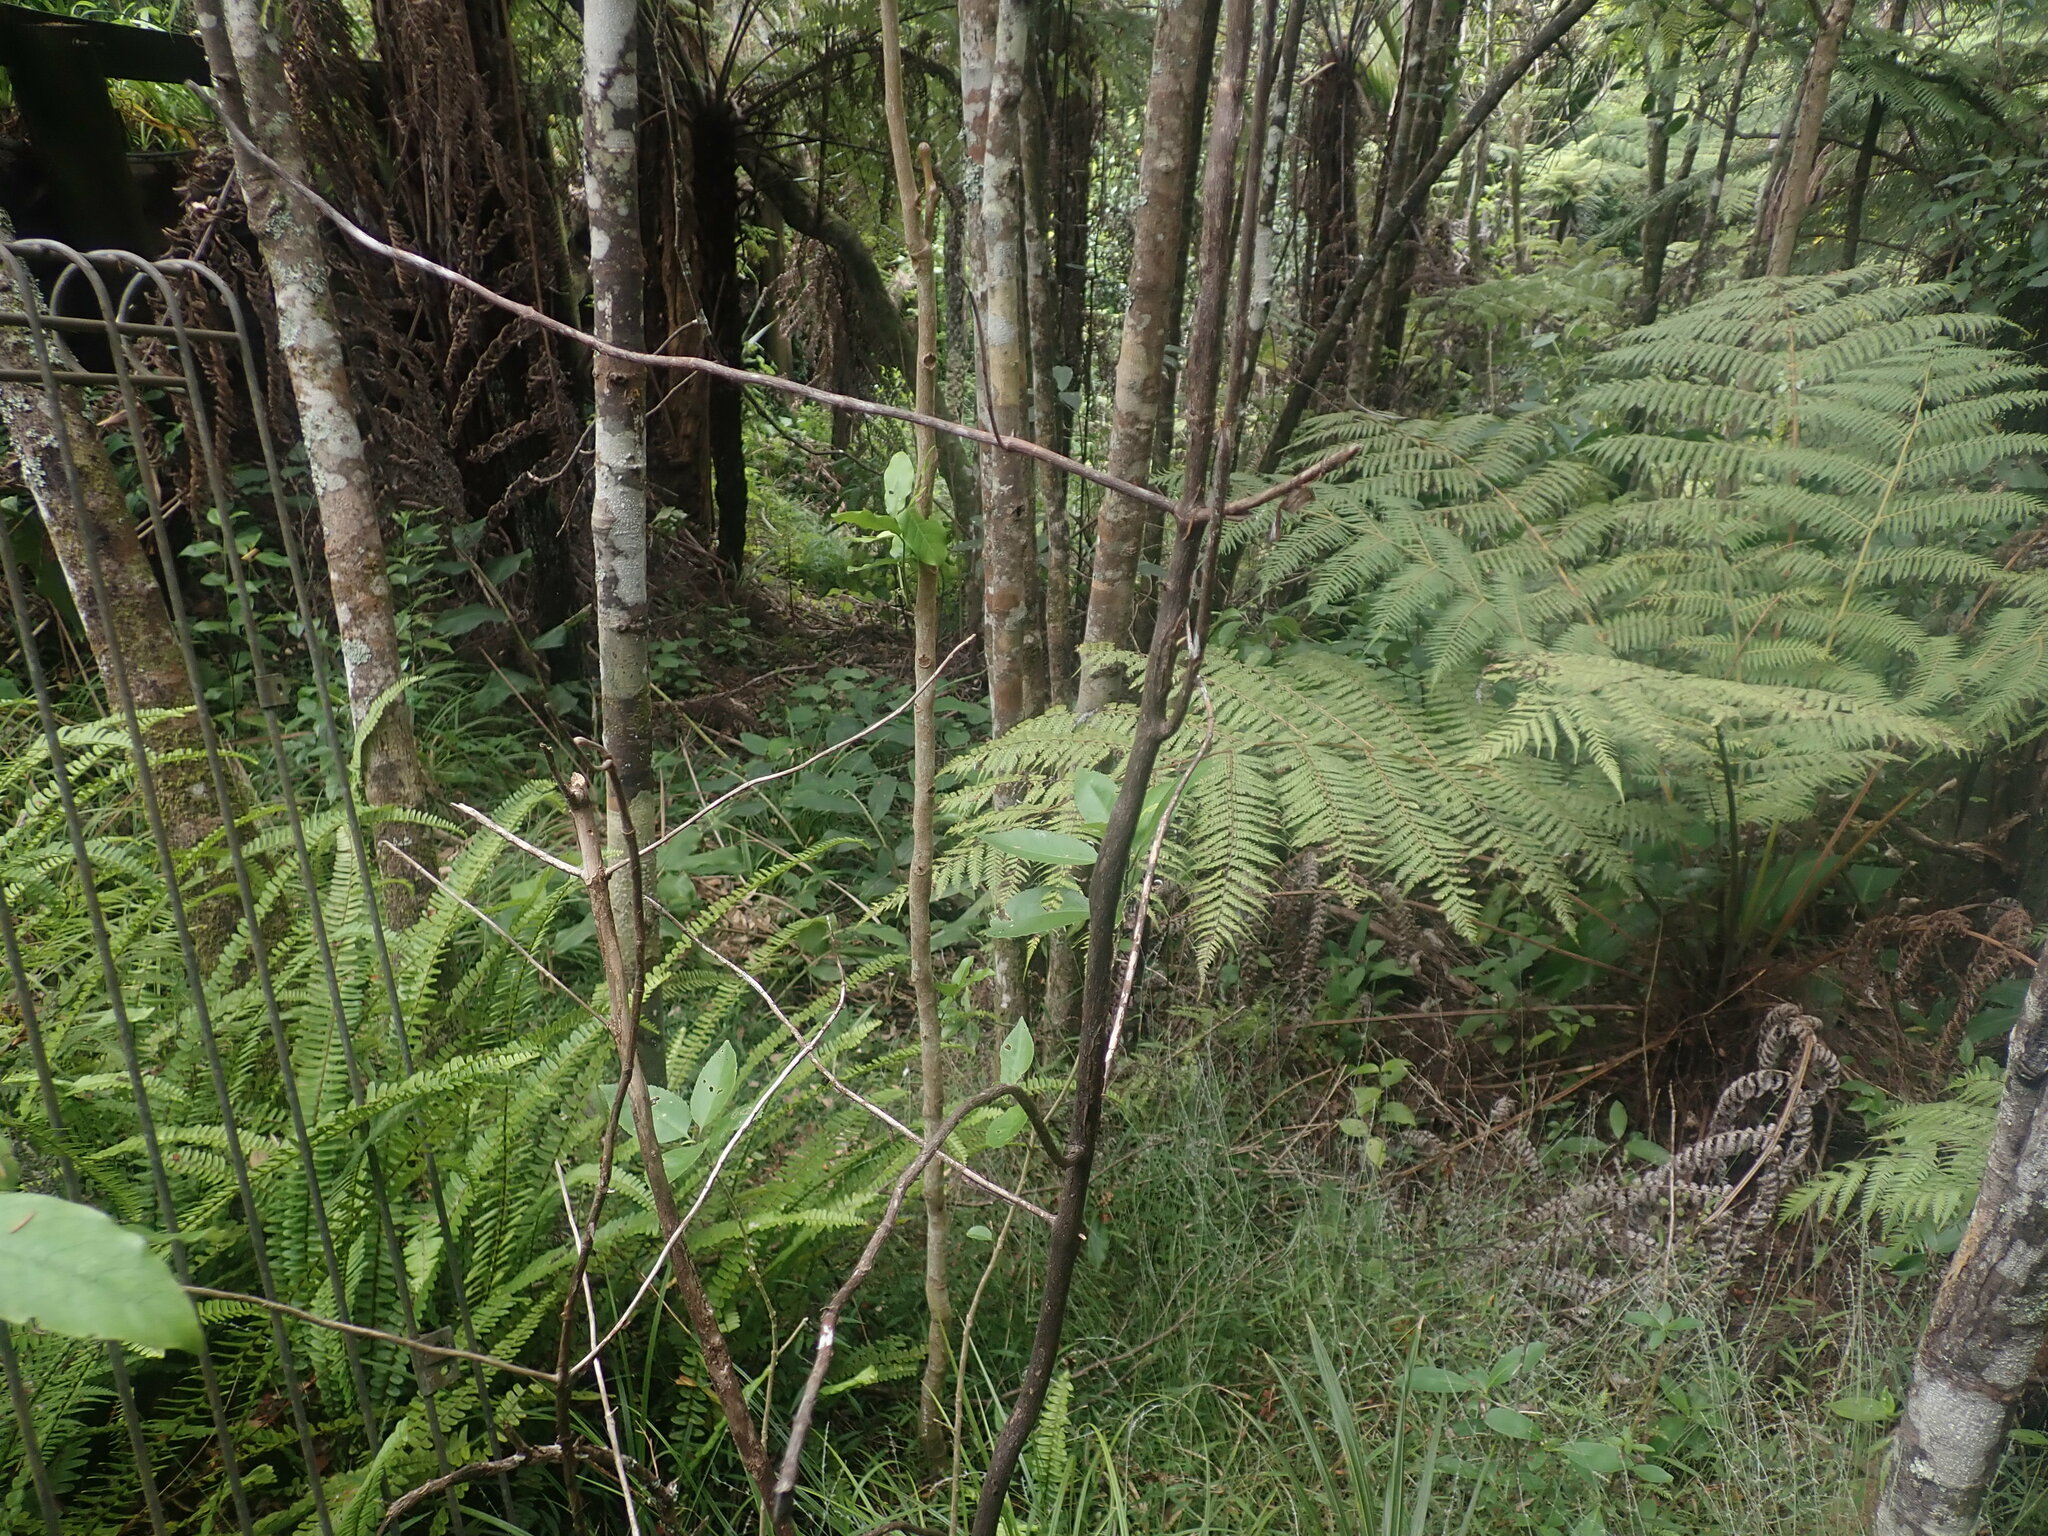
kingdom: Plantae
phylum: Tracheophyta
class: Polypodiopsida
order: Cyatheales
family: Cyatheaceae
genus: Alsophila
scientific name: Alsophila dealbata
